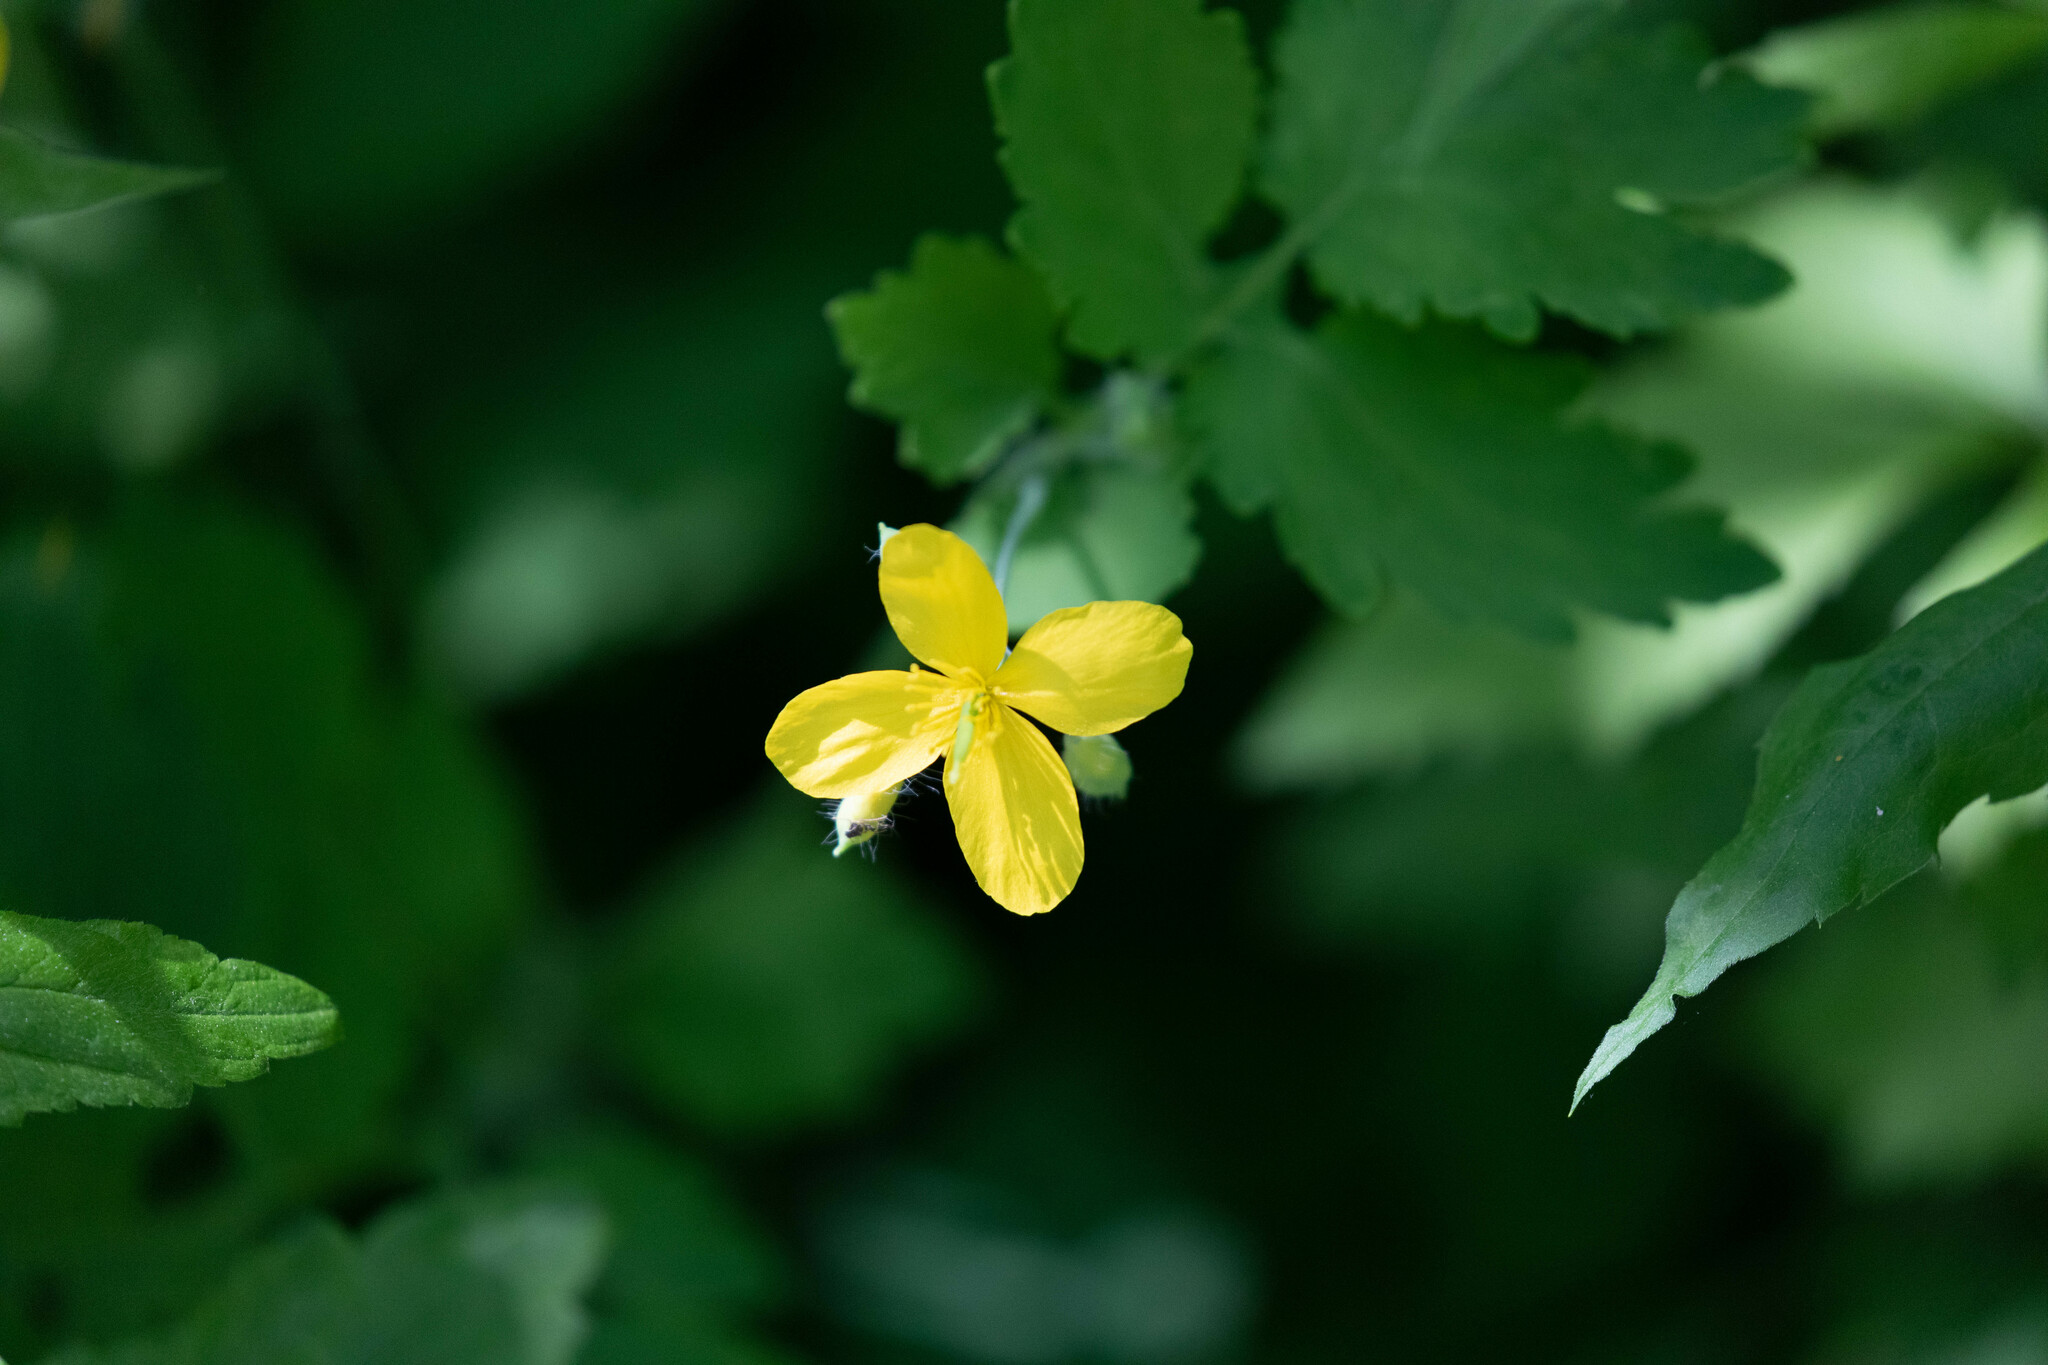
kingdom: Plantae
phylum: Tracheophyta
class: Magnoliopsida
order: Ranunculales
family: Papaveraceae
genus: Chelidonium
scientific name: Chelidonium majus
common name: Greater celandine
